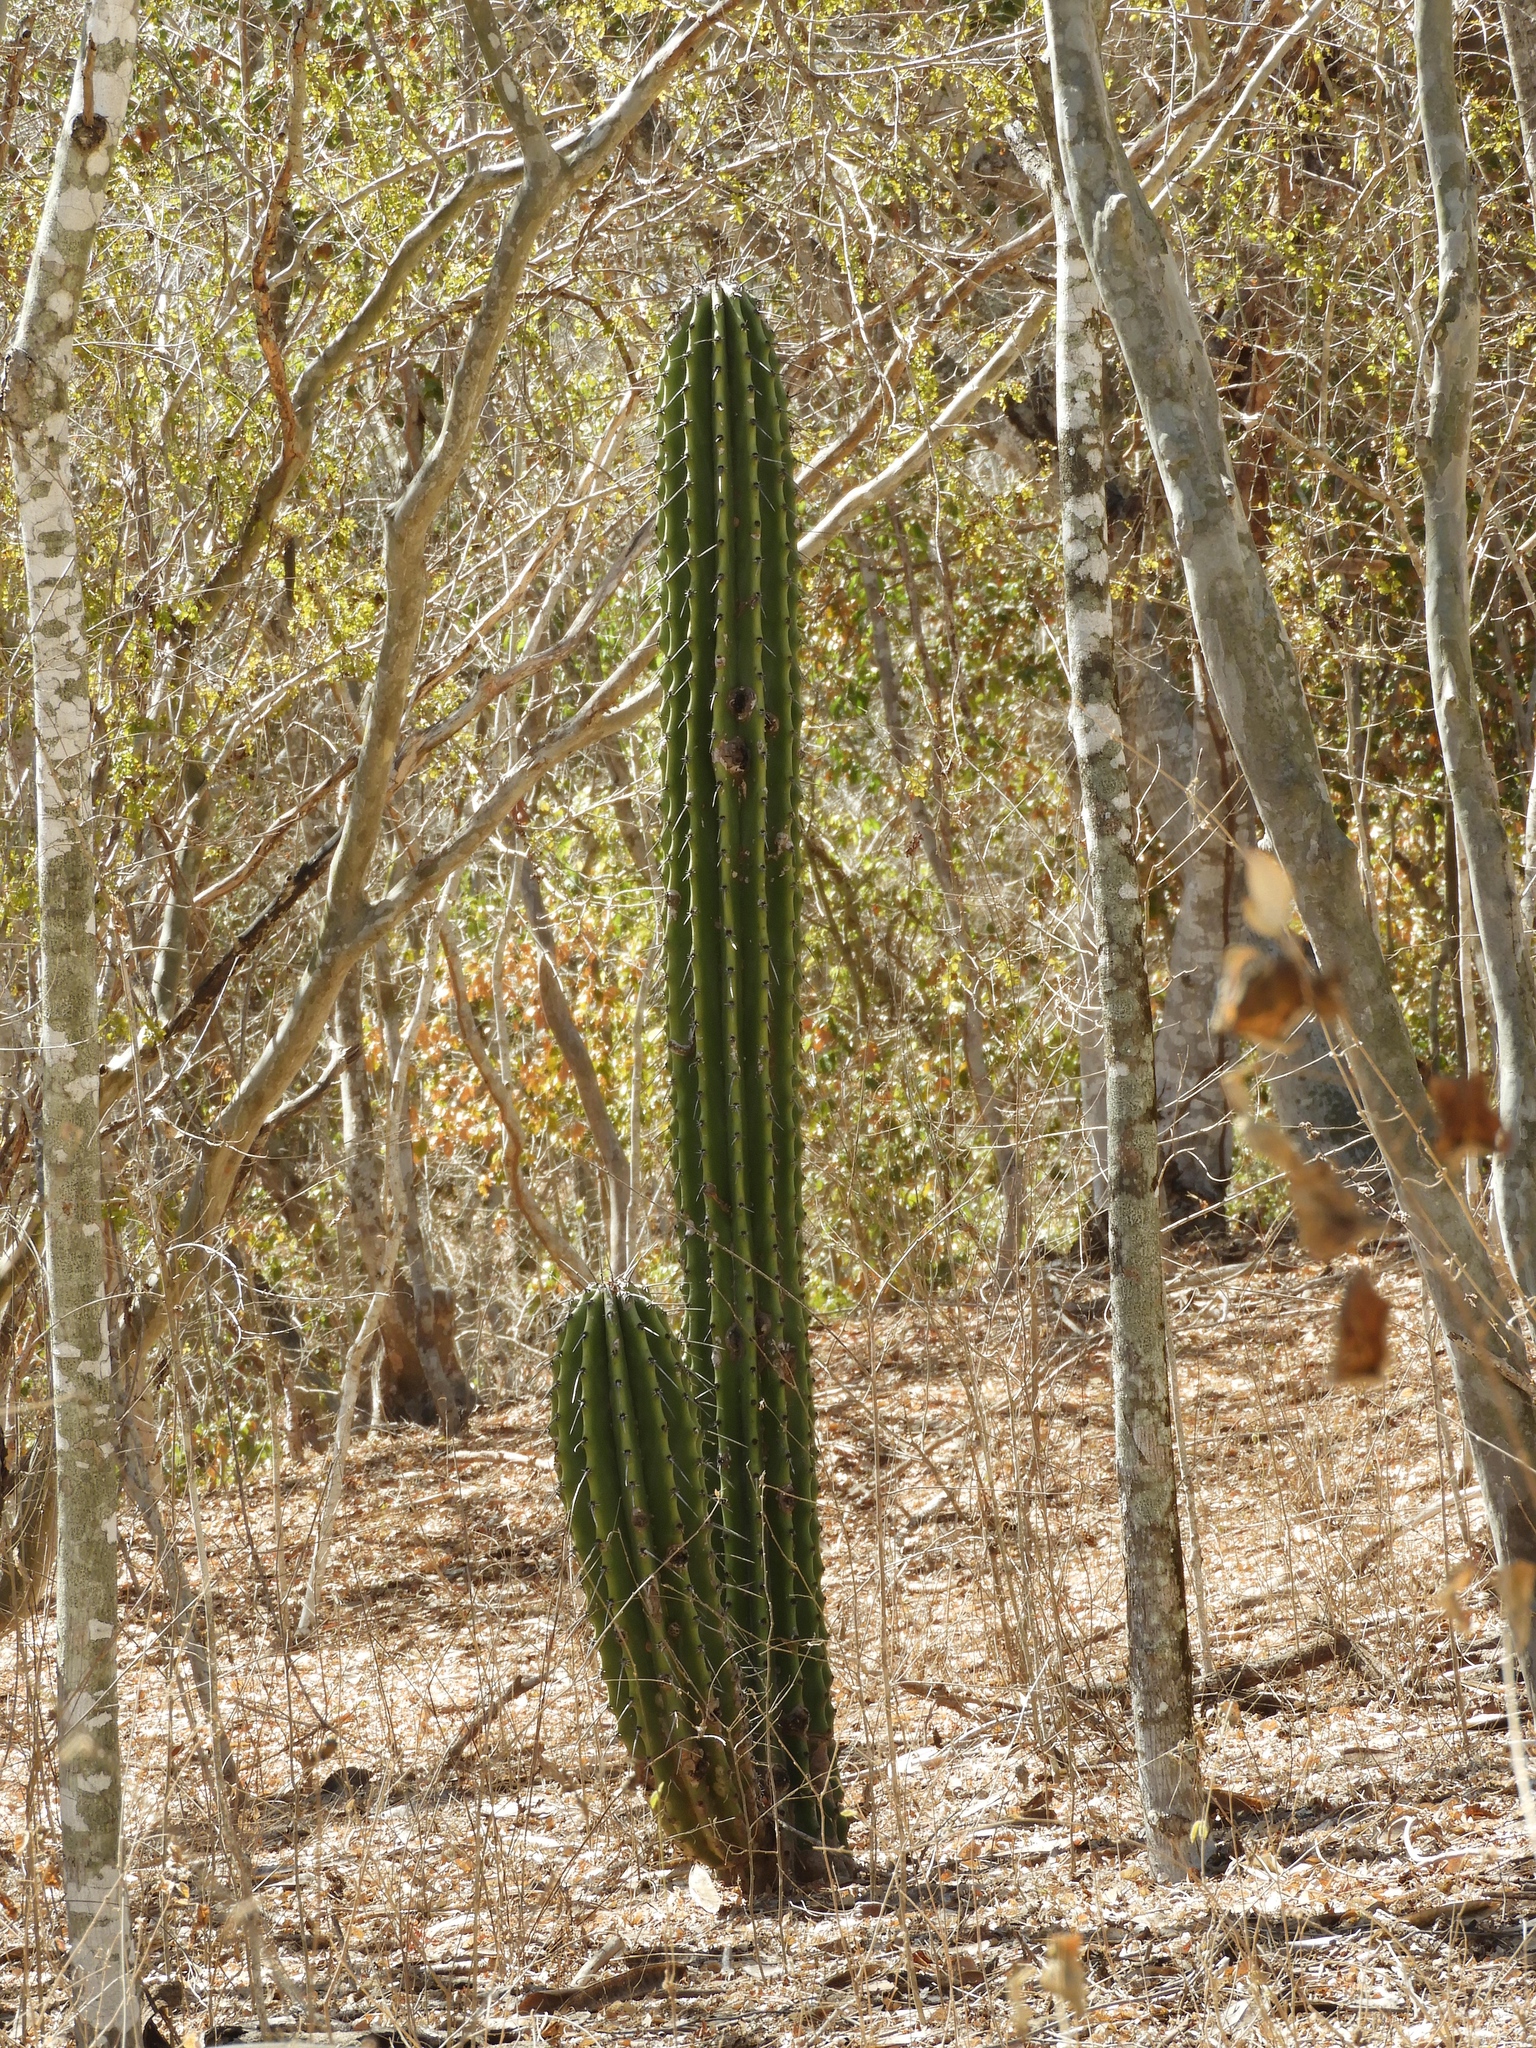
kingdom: Plantae
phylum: Tracheophyta
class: Magnoliopsida
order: Caryophyllales
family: Cactaceae
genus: Stenocereus
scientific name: Stenocereus martinezii
